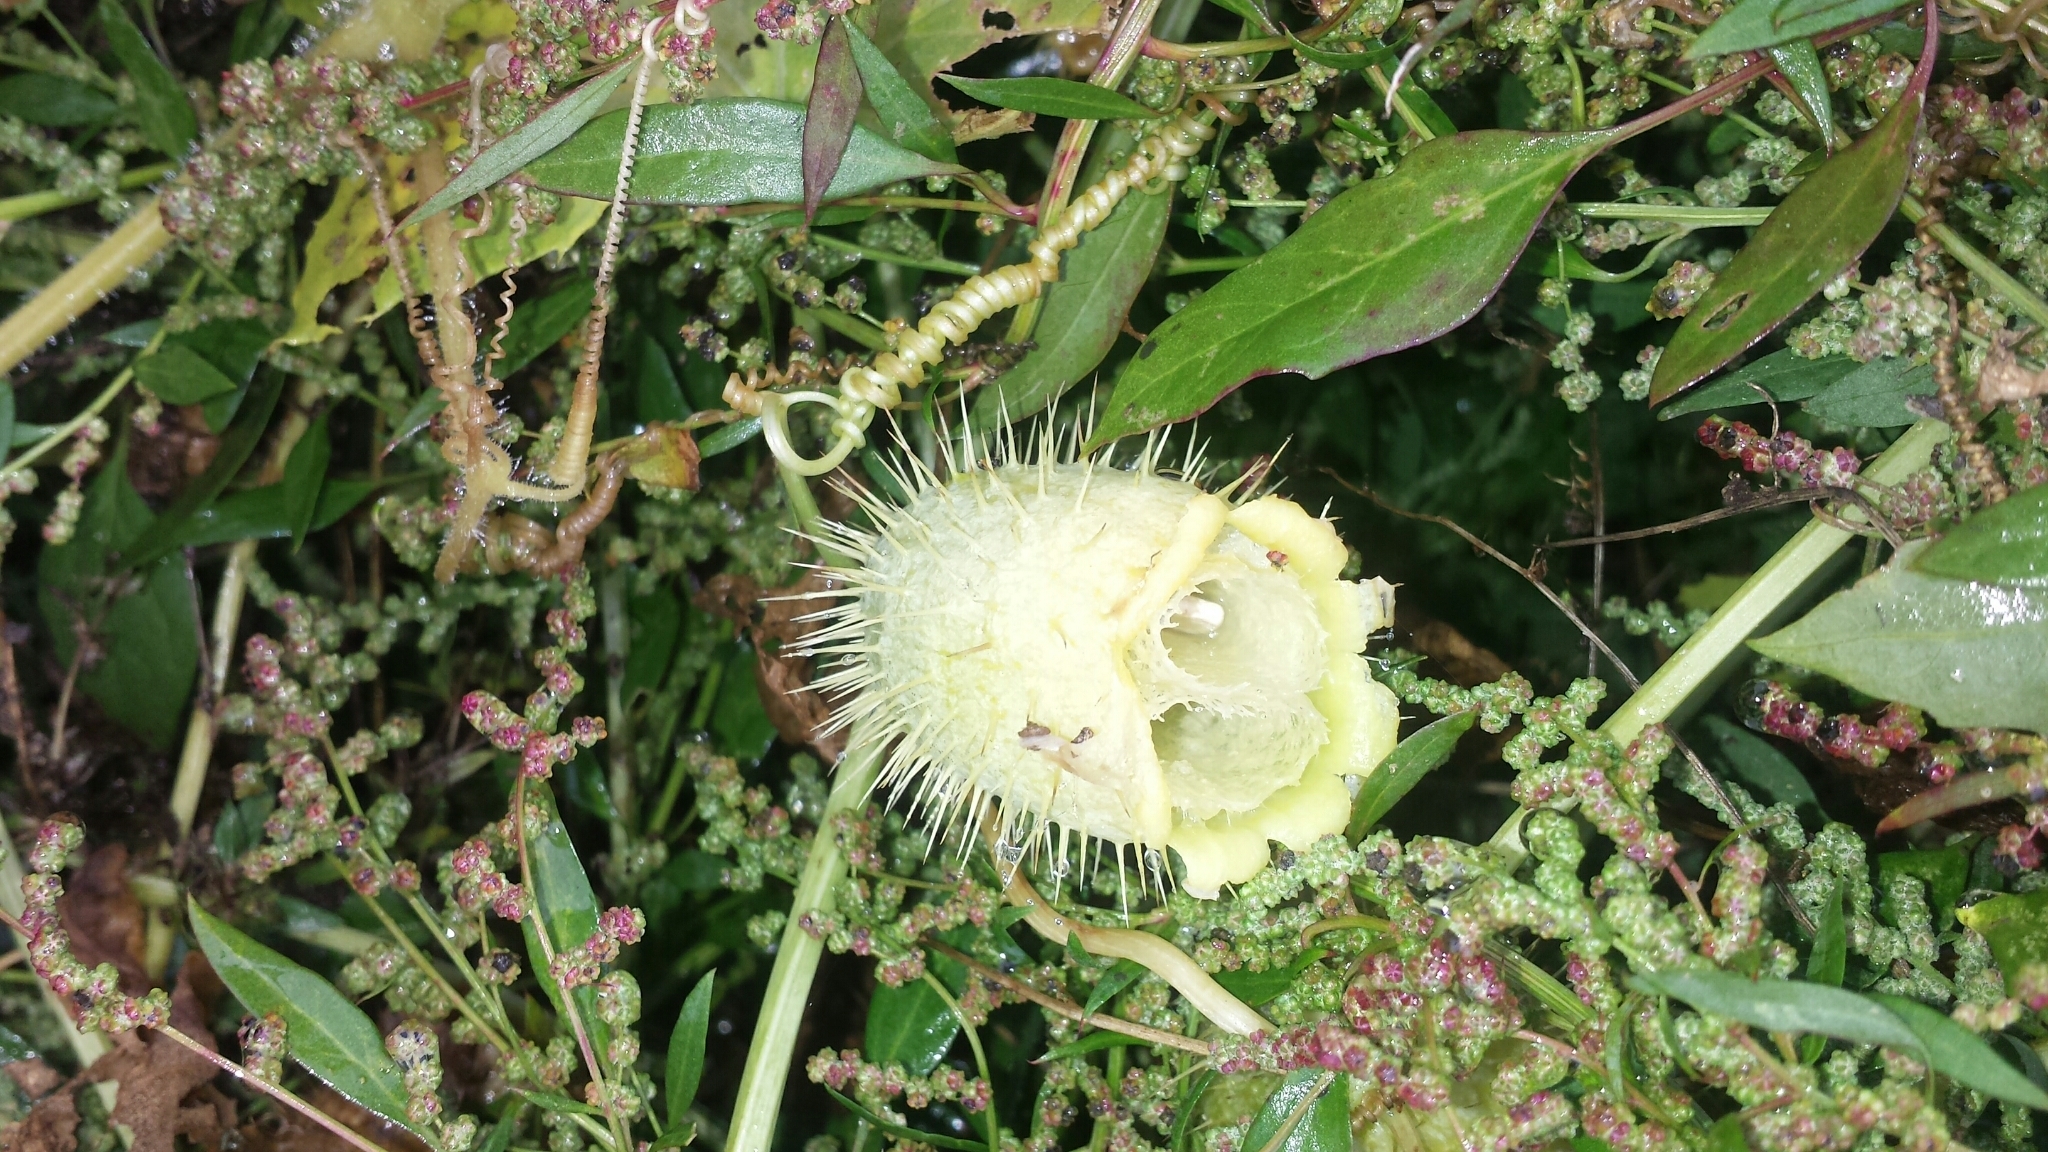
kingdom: Plantae
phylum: Tracheophyta
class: Magnoliopsida
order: Cucurbitales
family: Cucurbitaceae
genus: Echinocystis
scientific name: Echinocystis lobata
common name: Wild cucumber
